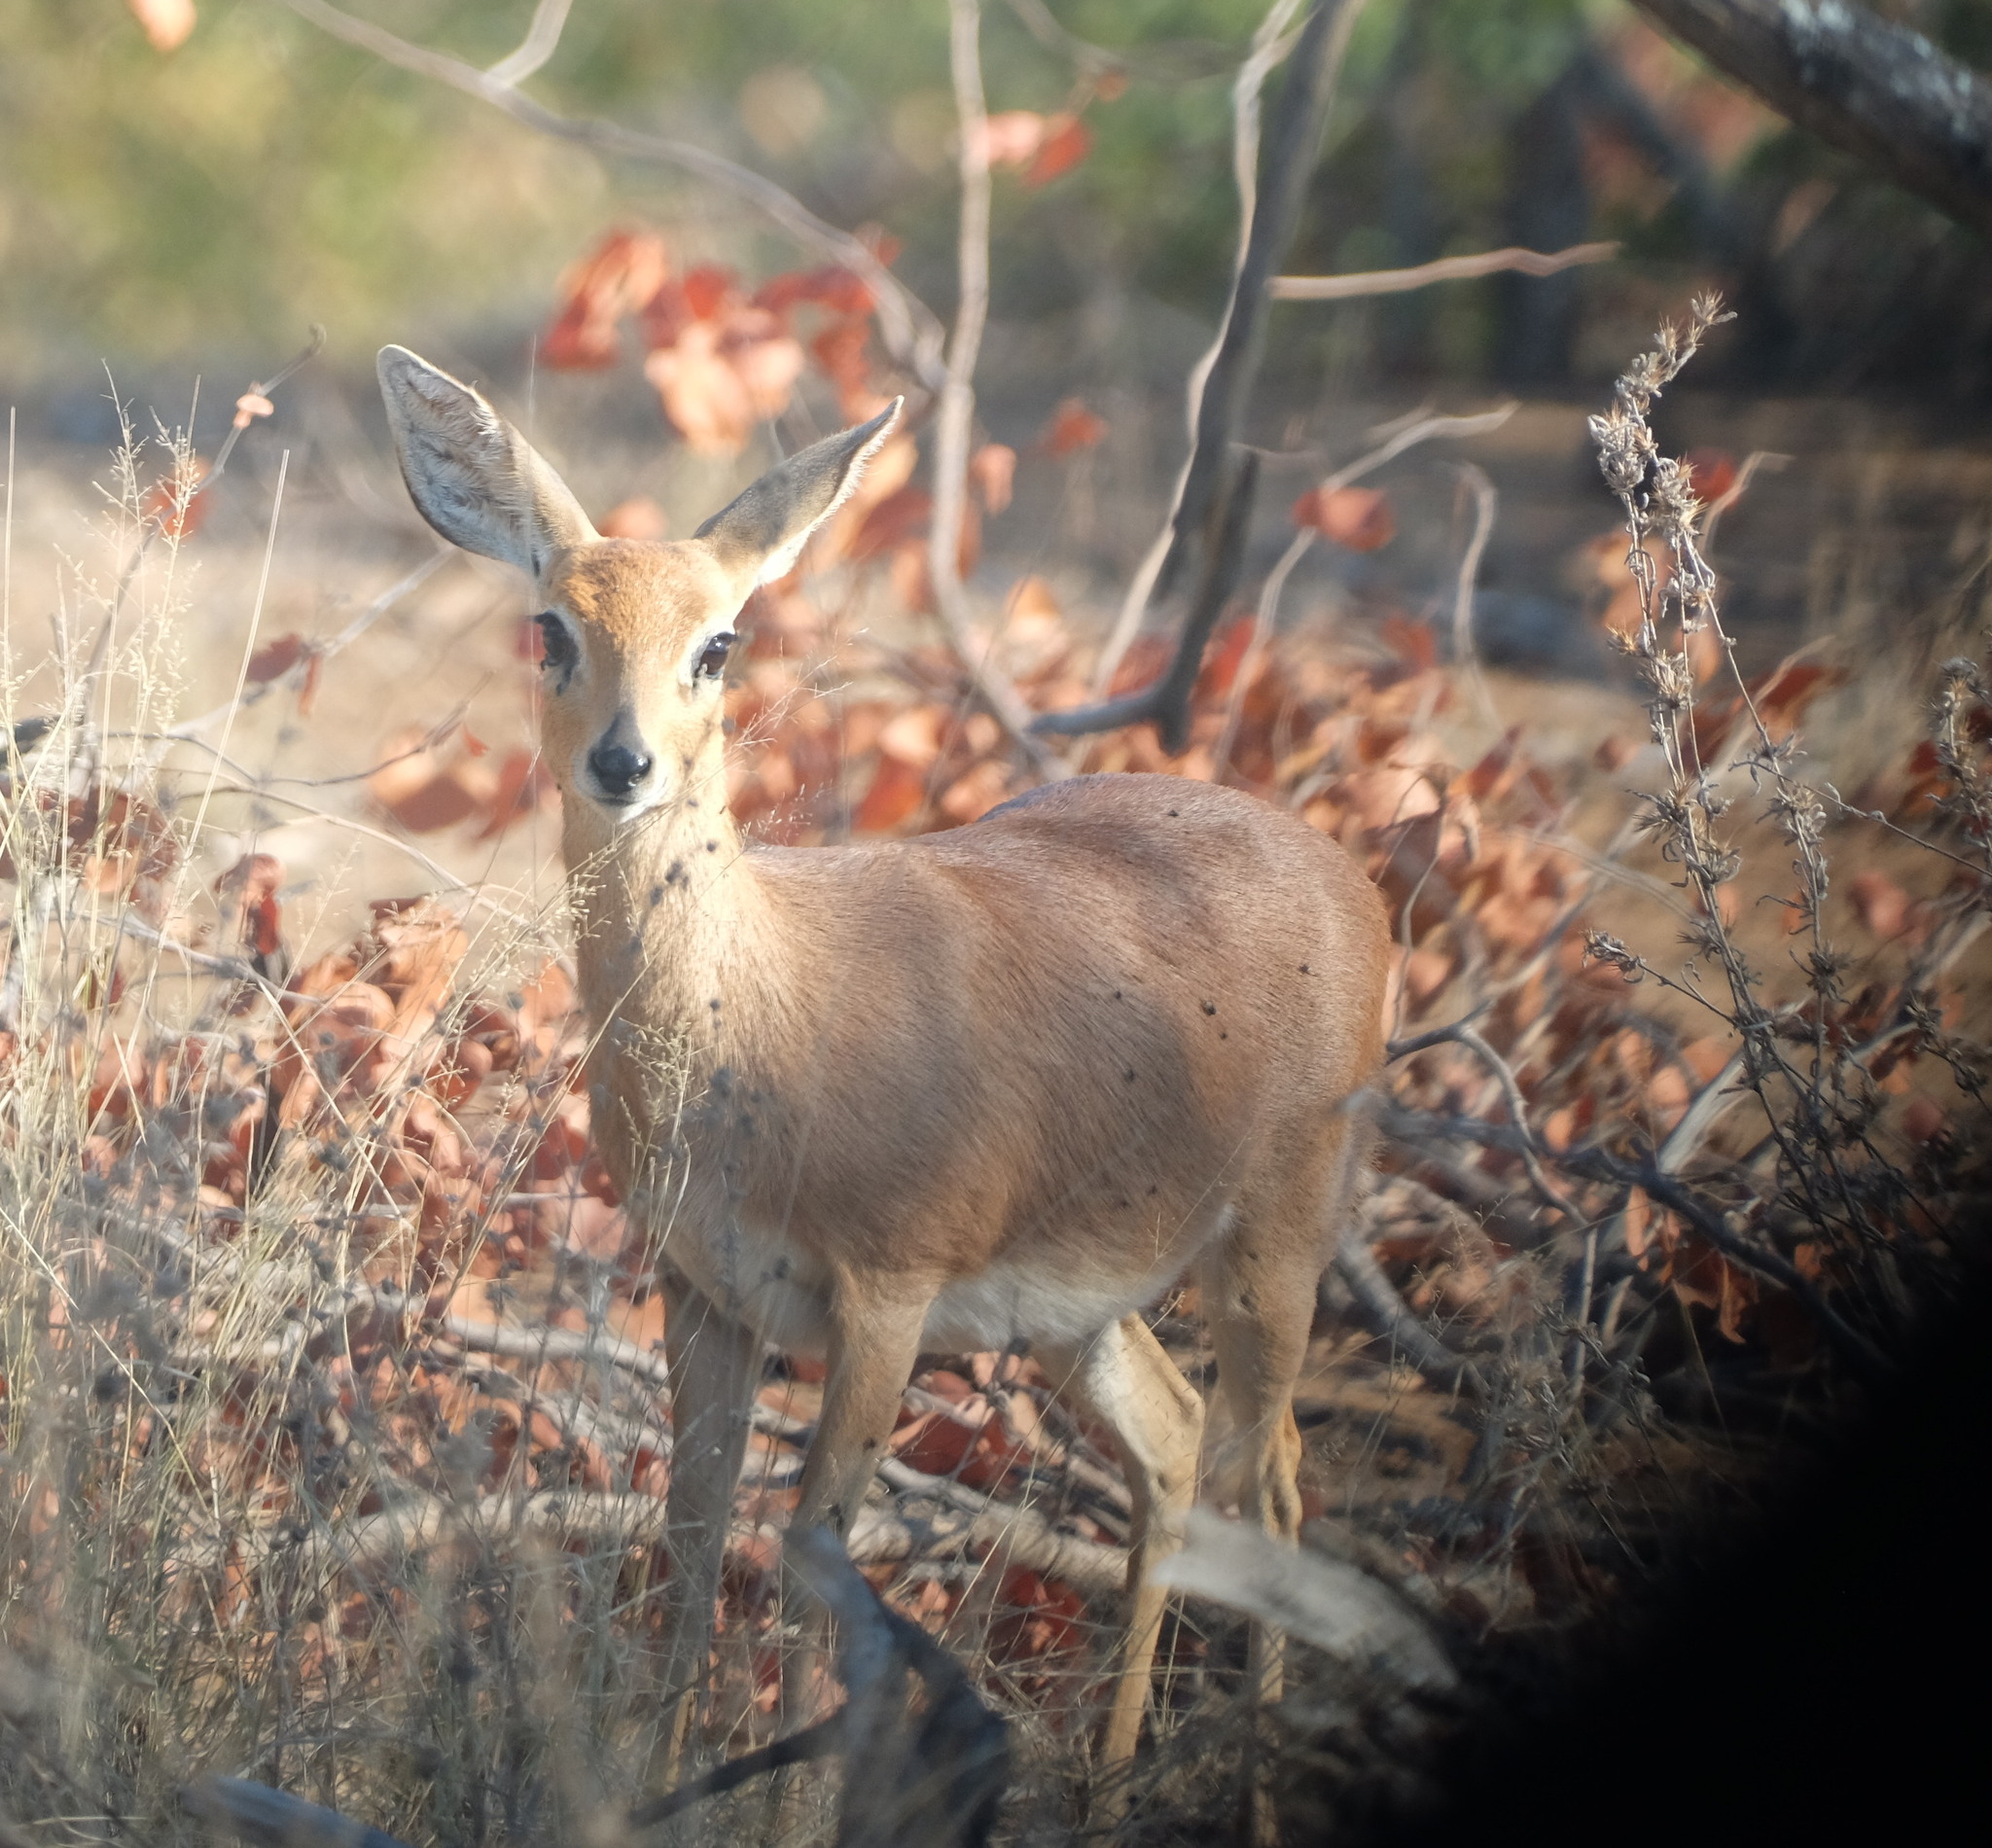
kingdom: Animalia
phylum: Chordata
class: Mammalia
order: Artiodactyla
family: Bovidae
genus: Raphicerus
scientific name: Raphicerus campestris
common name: Steenbok
